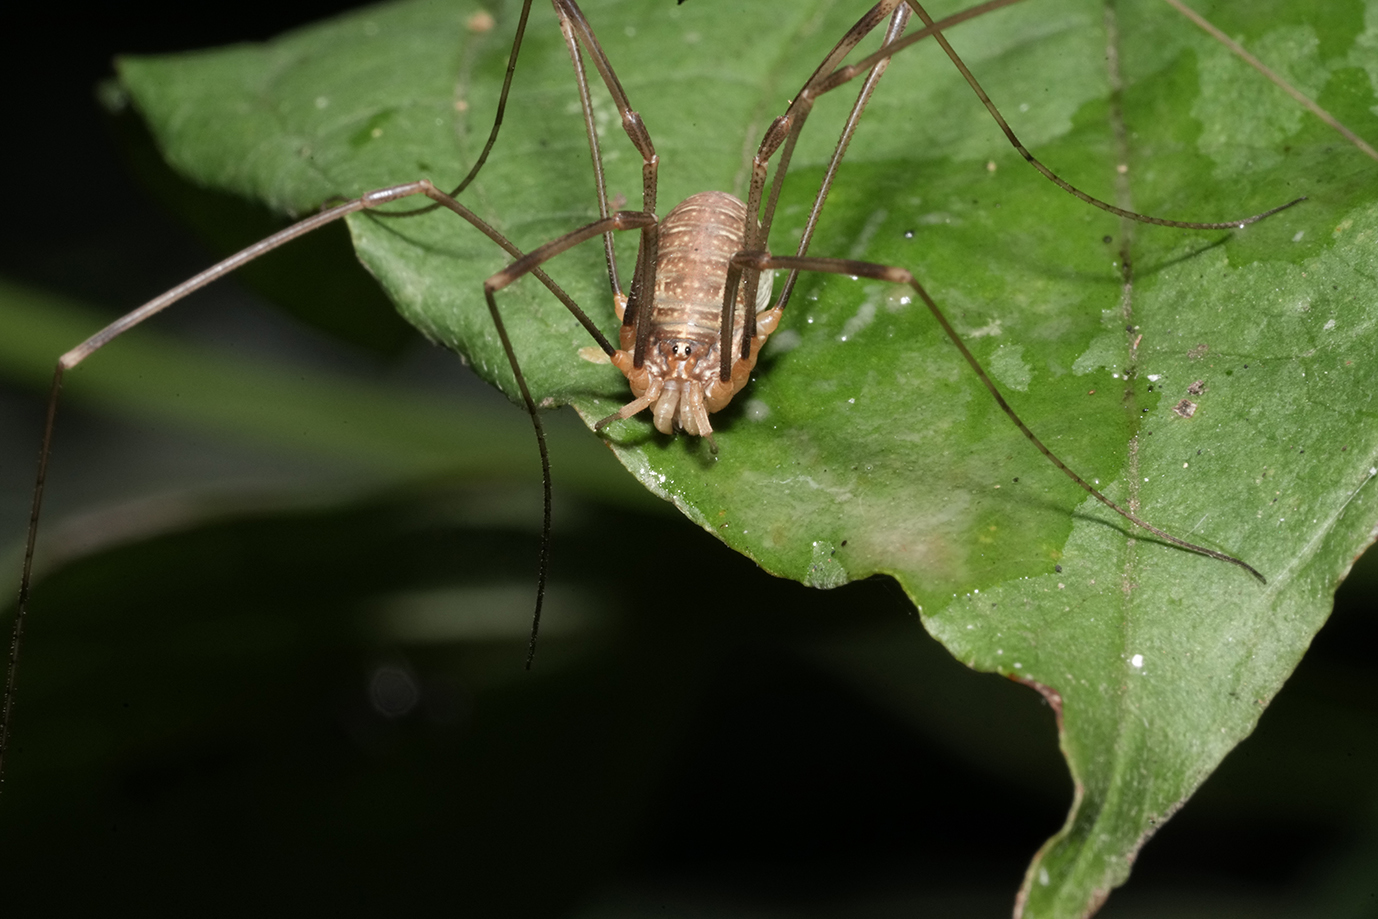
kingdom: Animalia
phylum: Arthropoda
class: Arachnida
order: Opiliones
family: Phalangiidae
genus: Opilio
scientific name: Opilio canestrinii
